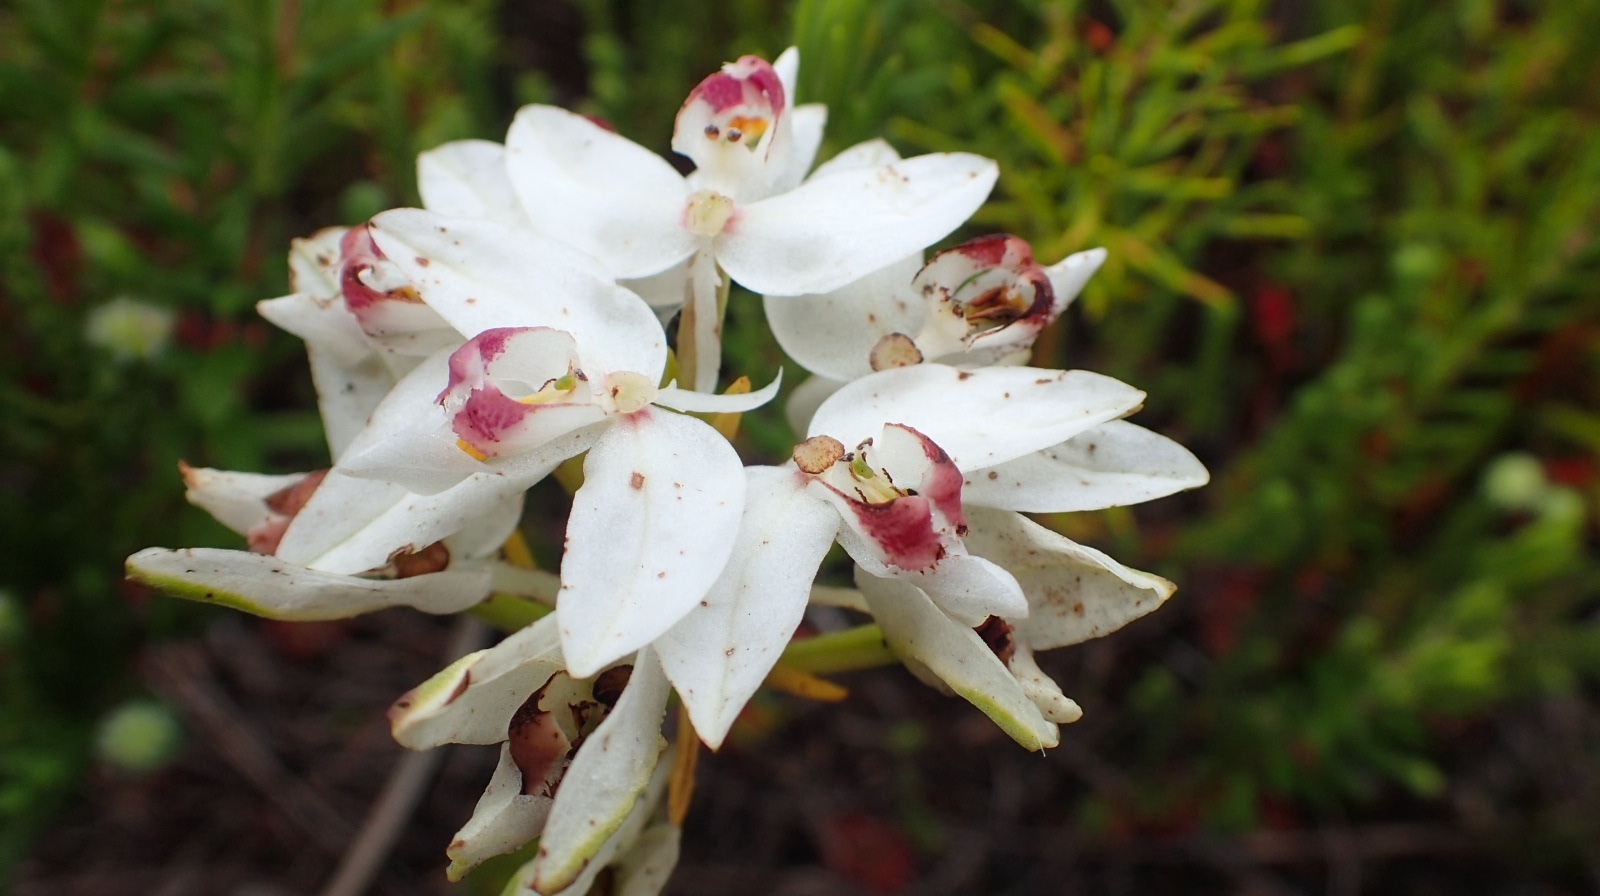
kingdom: Plantae
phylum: Tracheophyta
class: Liliopsida
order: Asparagales
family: Orchidaceae
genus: Disa
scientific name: Disa bivalvata
